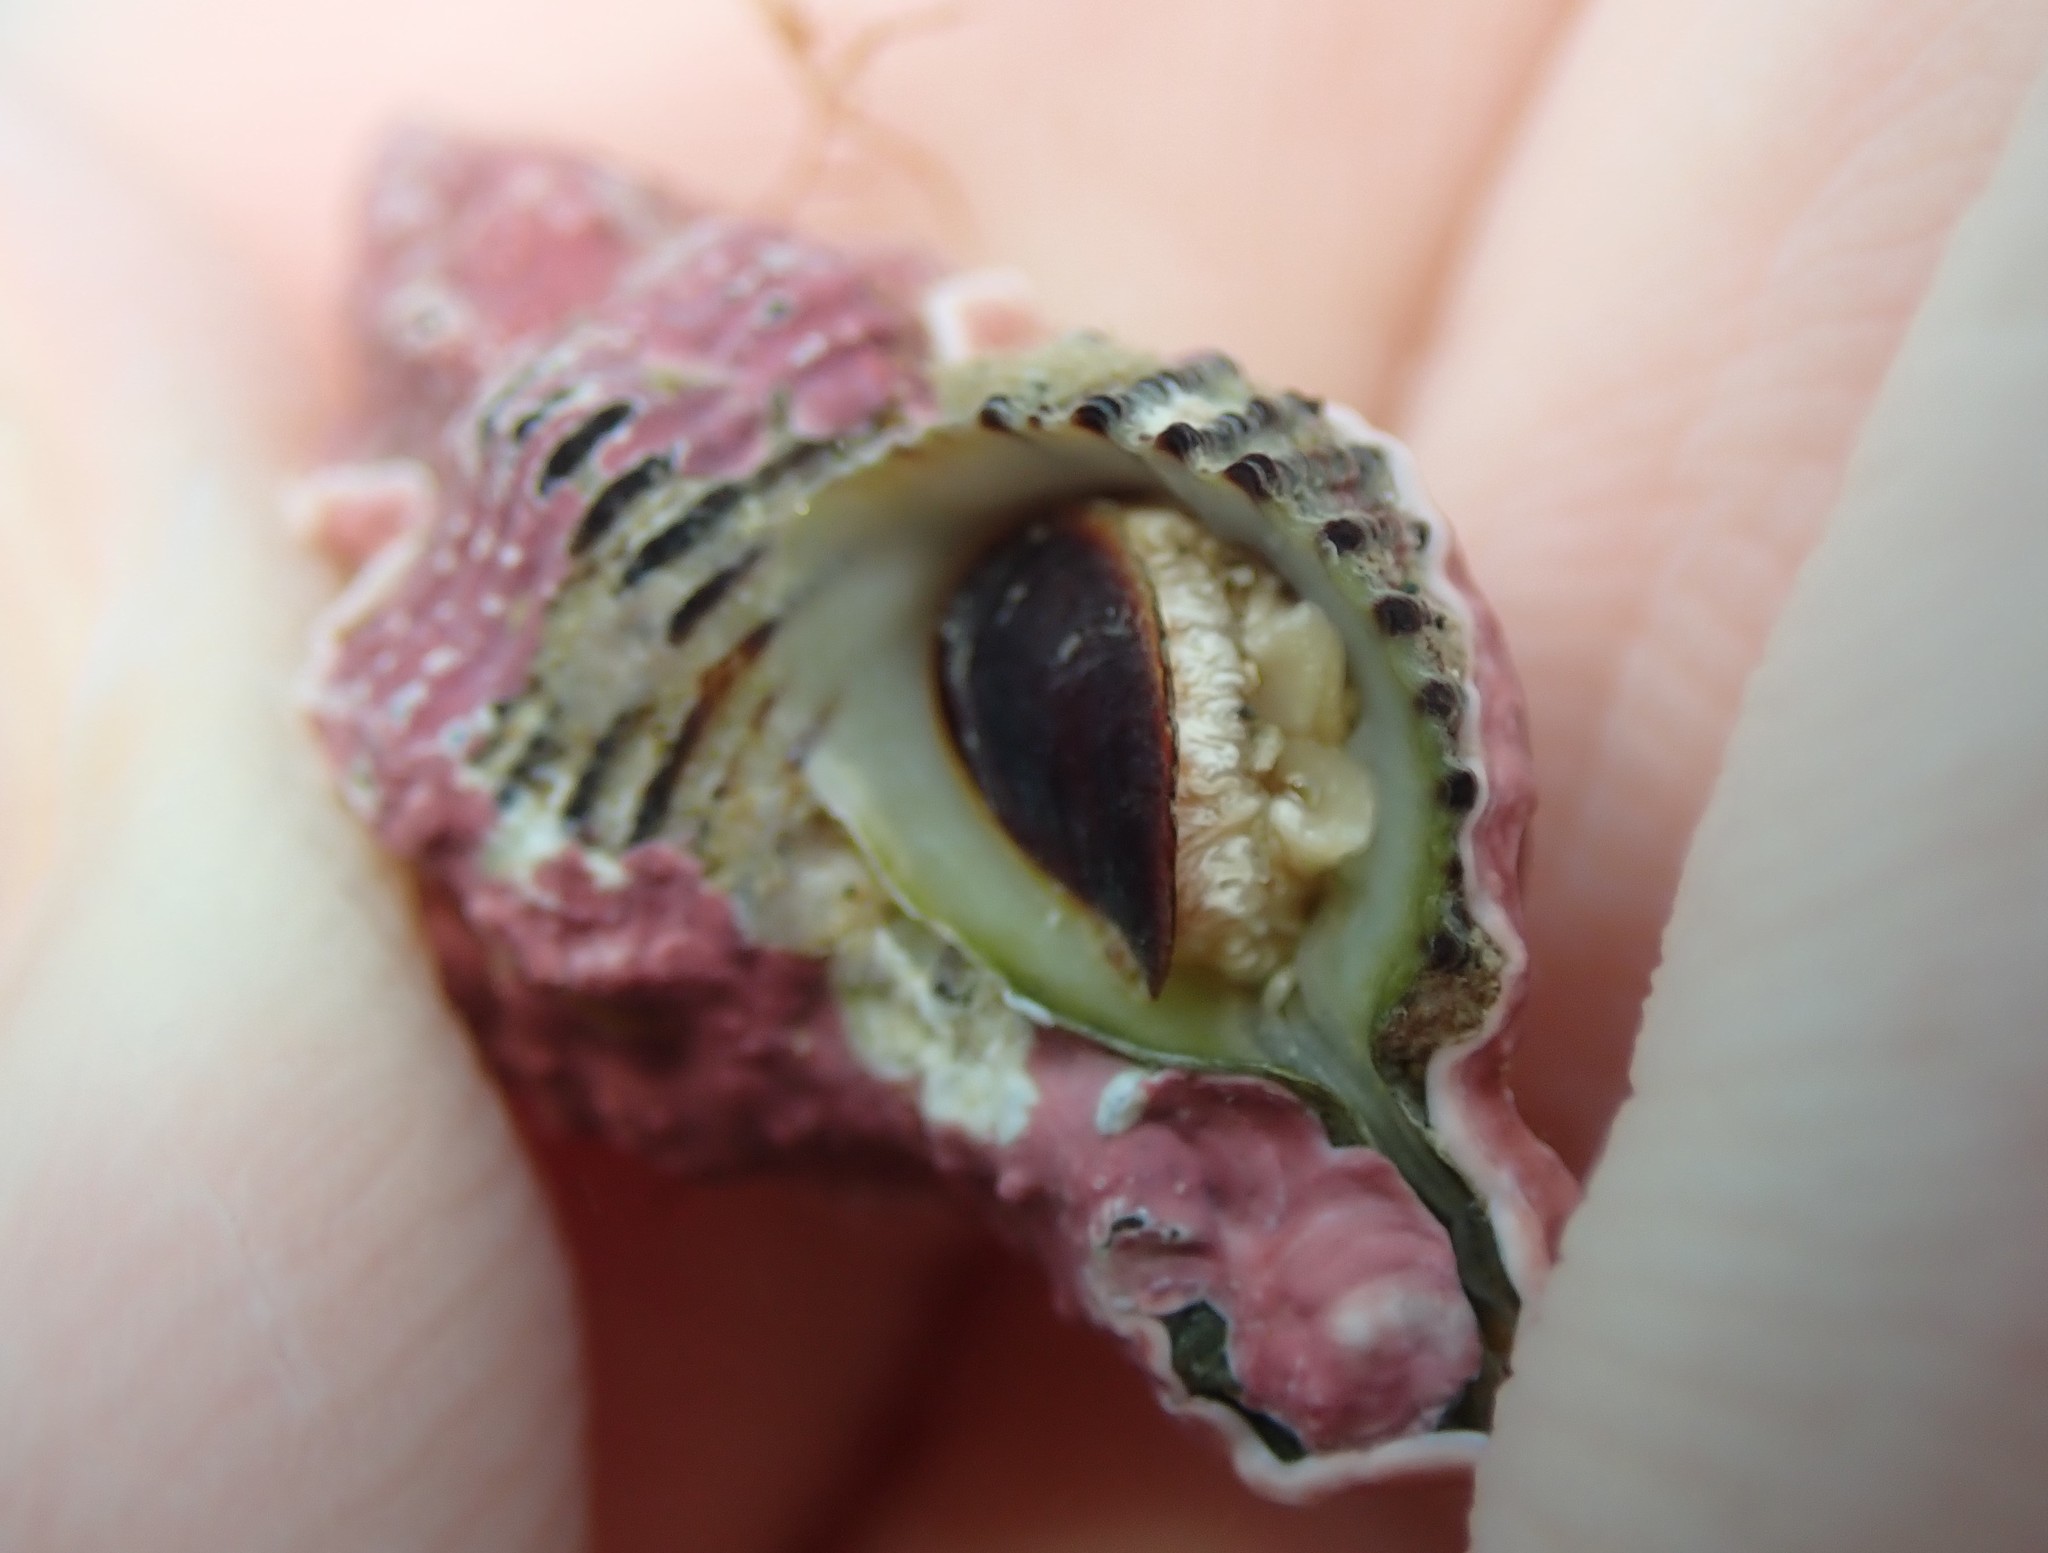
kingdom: Animalia
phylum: Mollusca
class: Gastropoda
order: Neogastropoda
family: Muricidae
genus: Murexsul
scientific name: Murexsul octogonus
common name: Octagon murex
